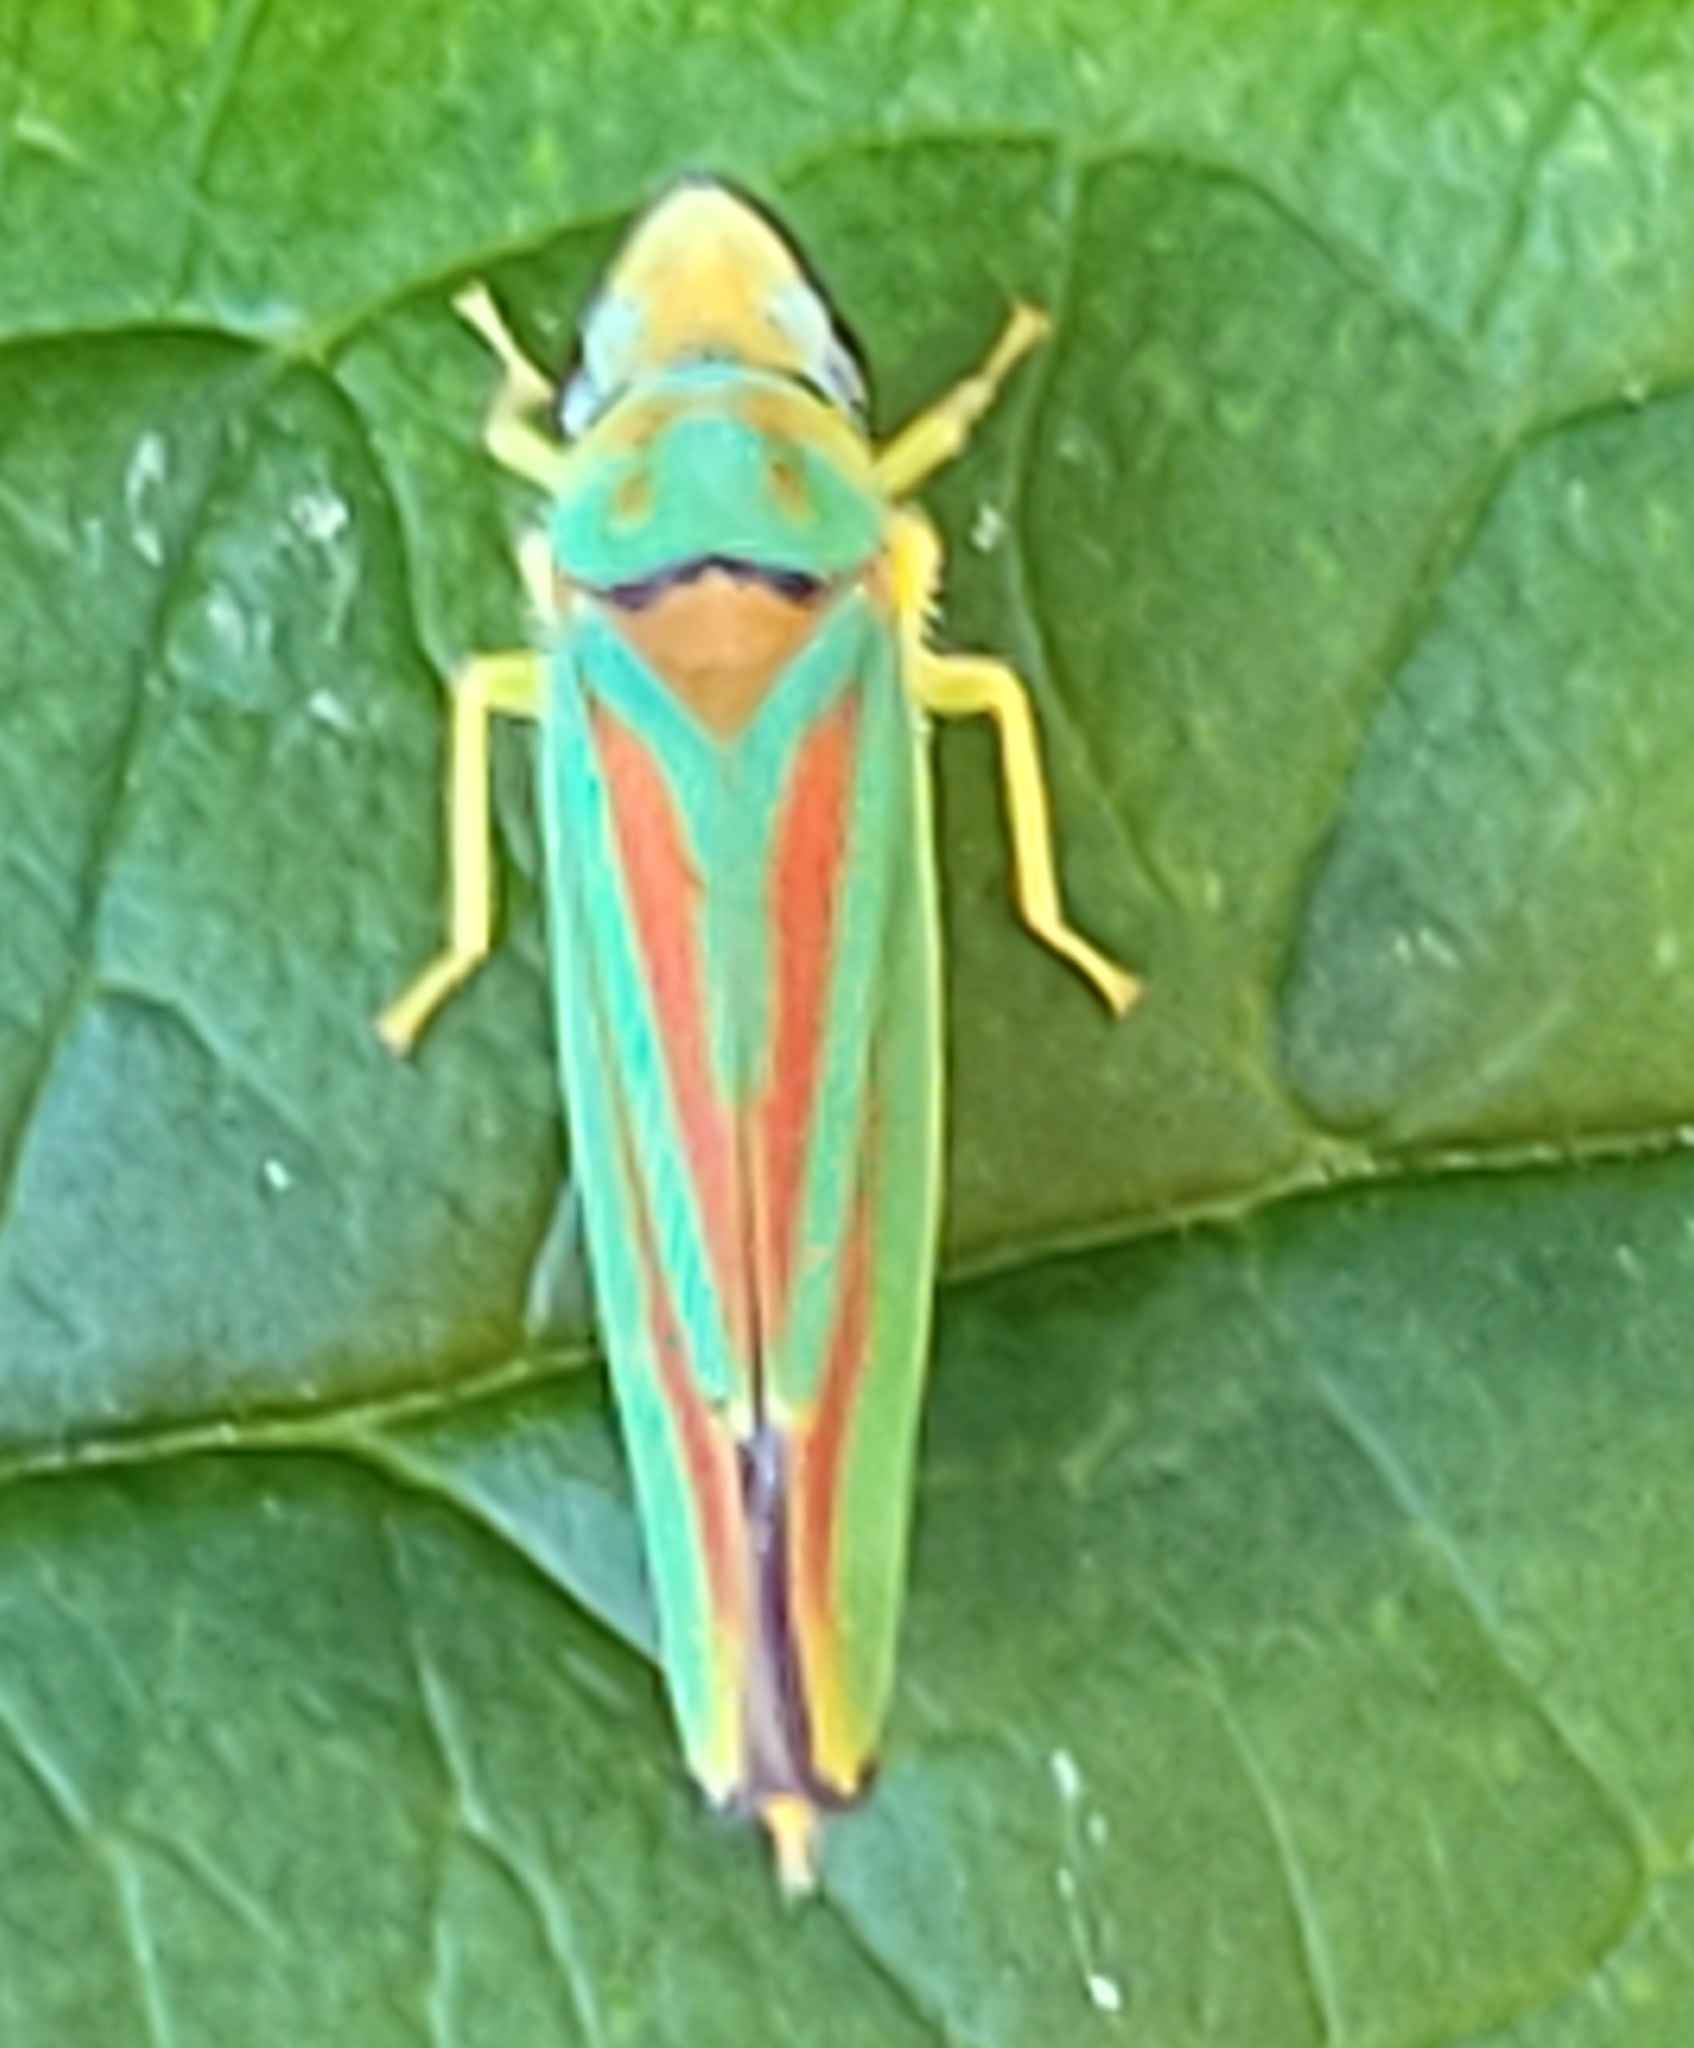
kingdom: Animalia
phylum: Arthropoda
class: Insecta
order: Hemiptera
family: Cicadellidae
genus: Graphocephala
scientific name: Graphocephala fennahi
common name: Rhododendron leafhopper
